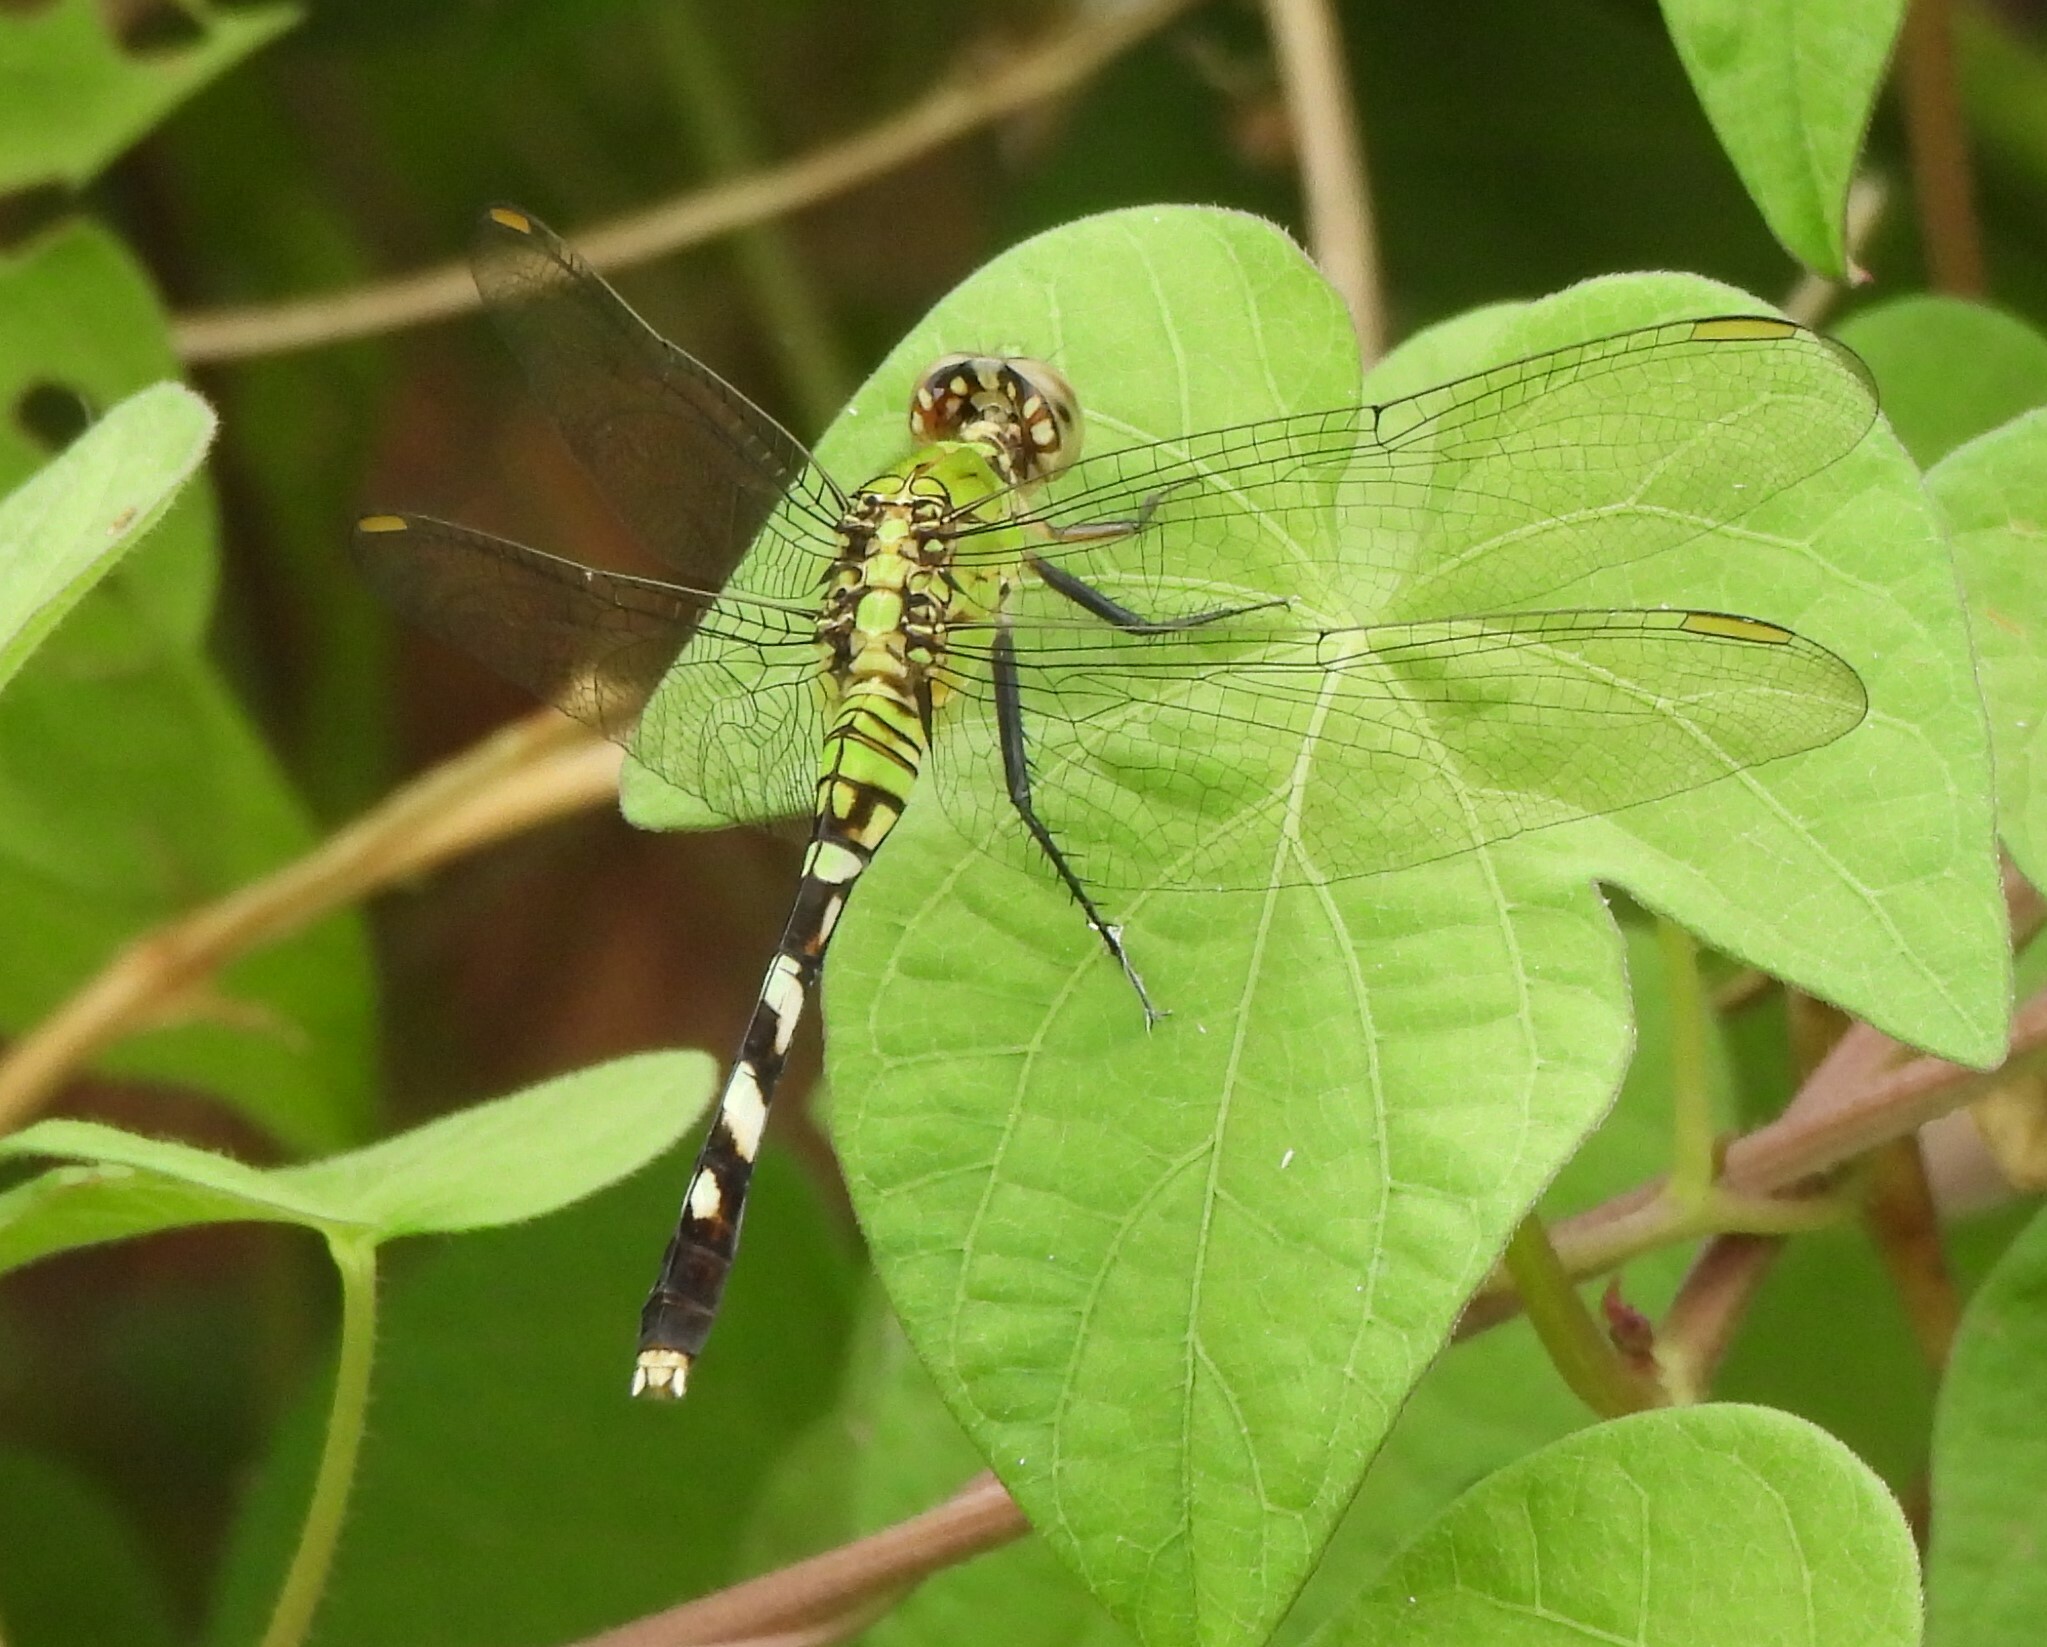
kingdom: Animalia
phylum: Arthropoda
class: Insecta
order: Odonata
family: Libellulidae
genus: Erythemis
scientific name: Erythemis simplicicollis
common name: Eastern pondhawk
